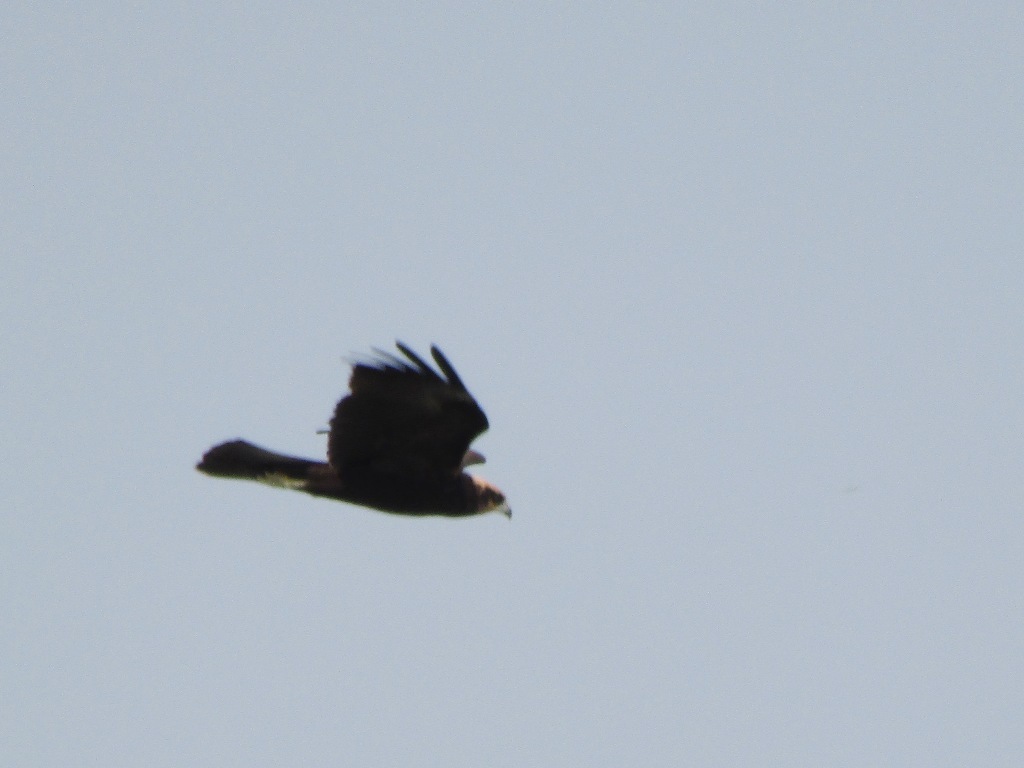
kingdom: Animalia
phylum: Chordata
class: Aves
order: Accipitriformes
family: Accipitridae
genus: Circus
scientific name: Circus aeruginosus
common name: Western marsh harrier
